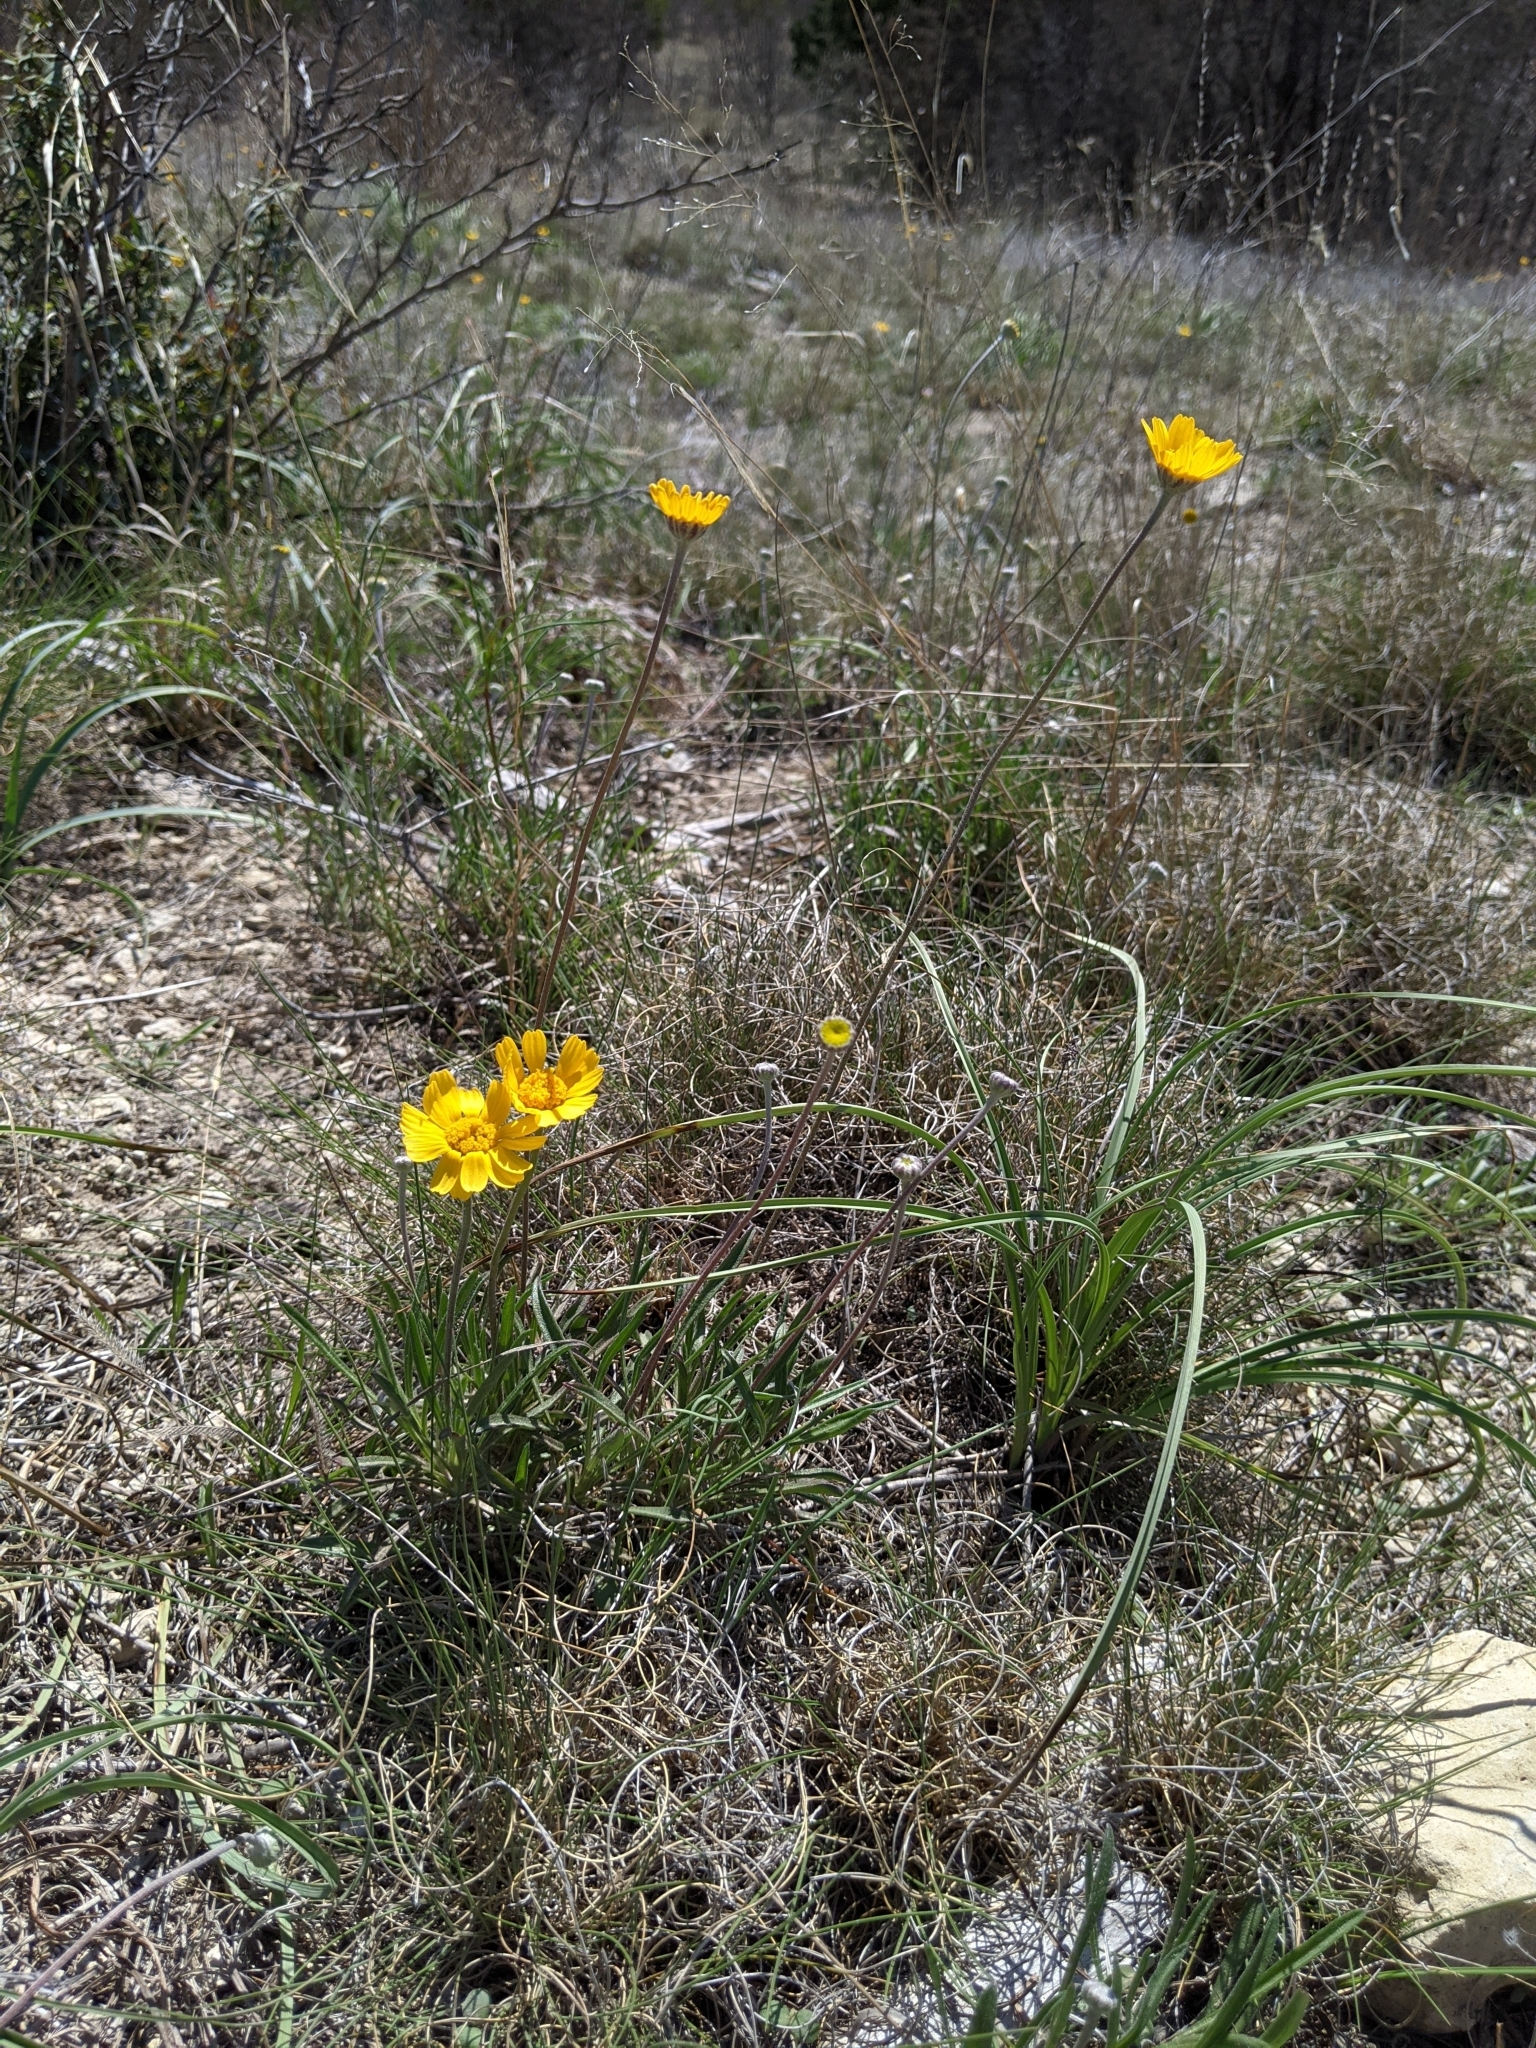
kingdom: Plantae
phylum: Tracheophyta
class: Magnoliopsida
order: Asterales
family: Asteraceae
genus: Tetraneuris
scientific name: Tetraneuris scaposa
